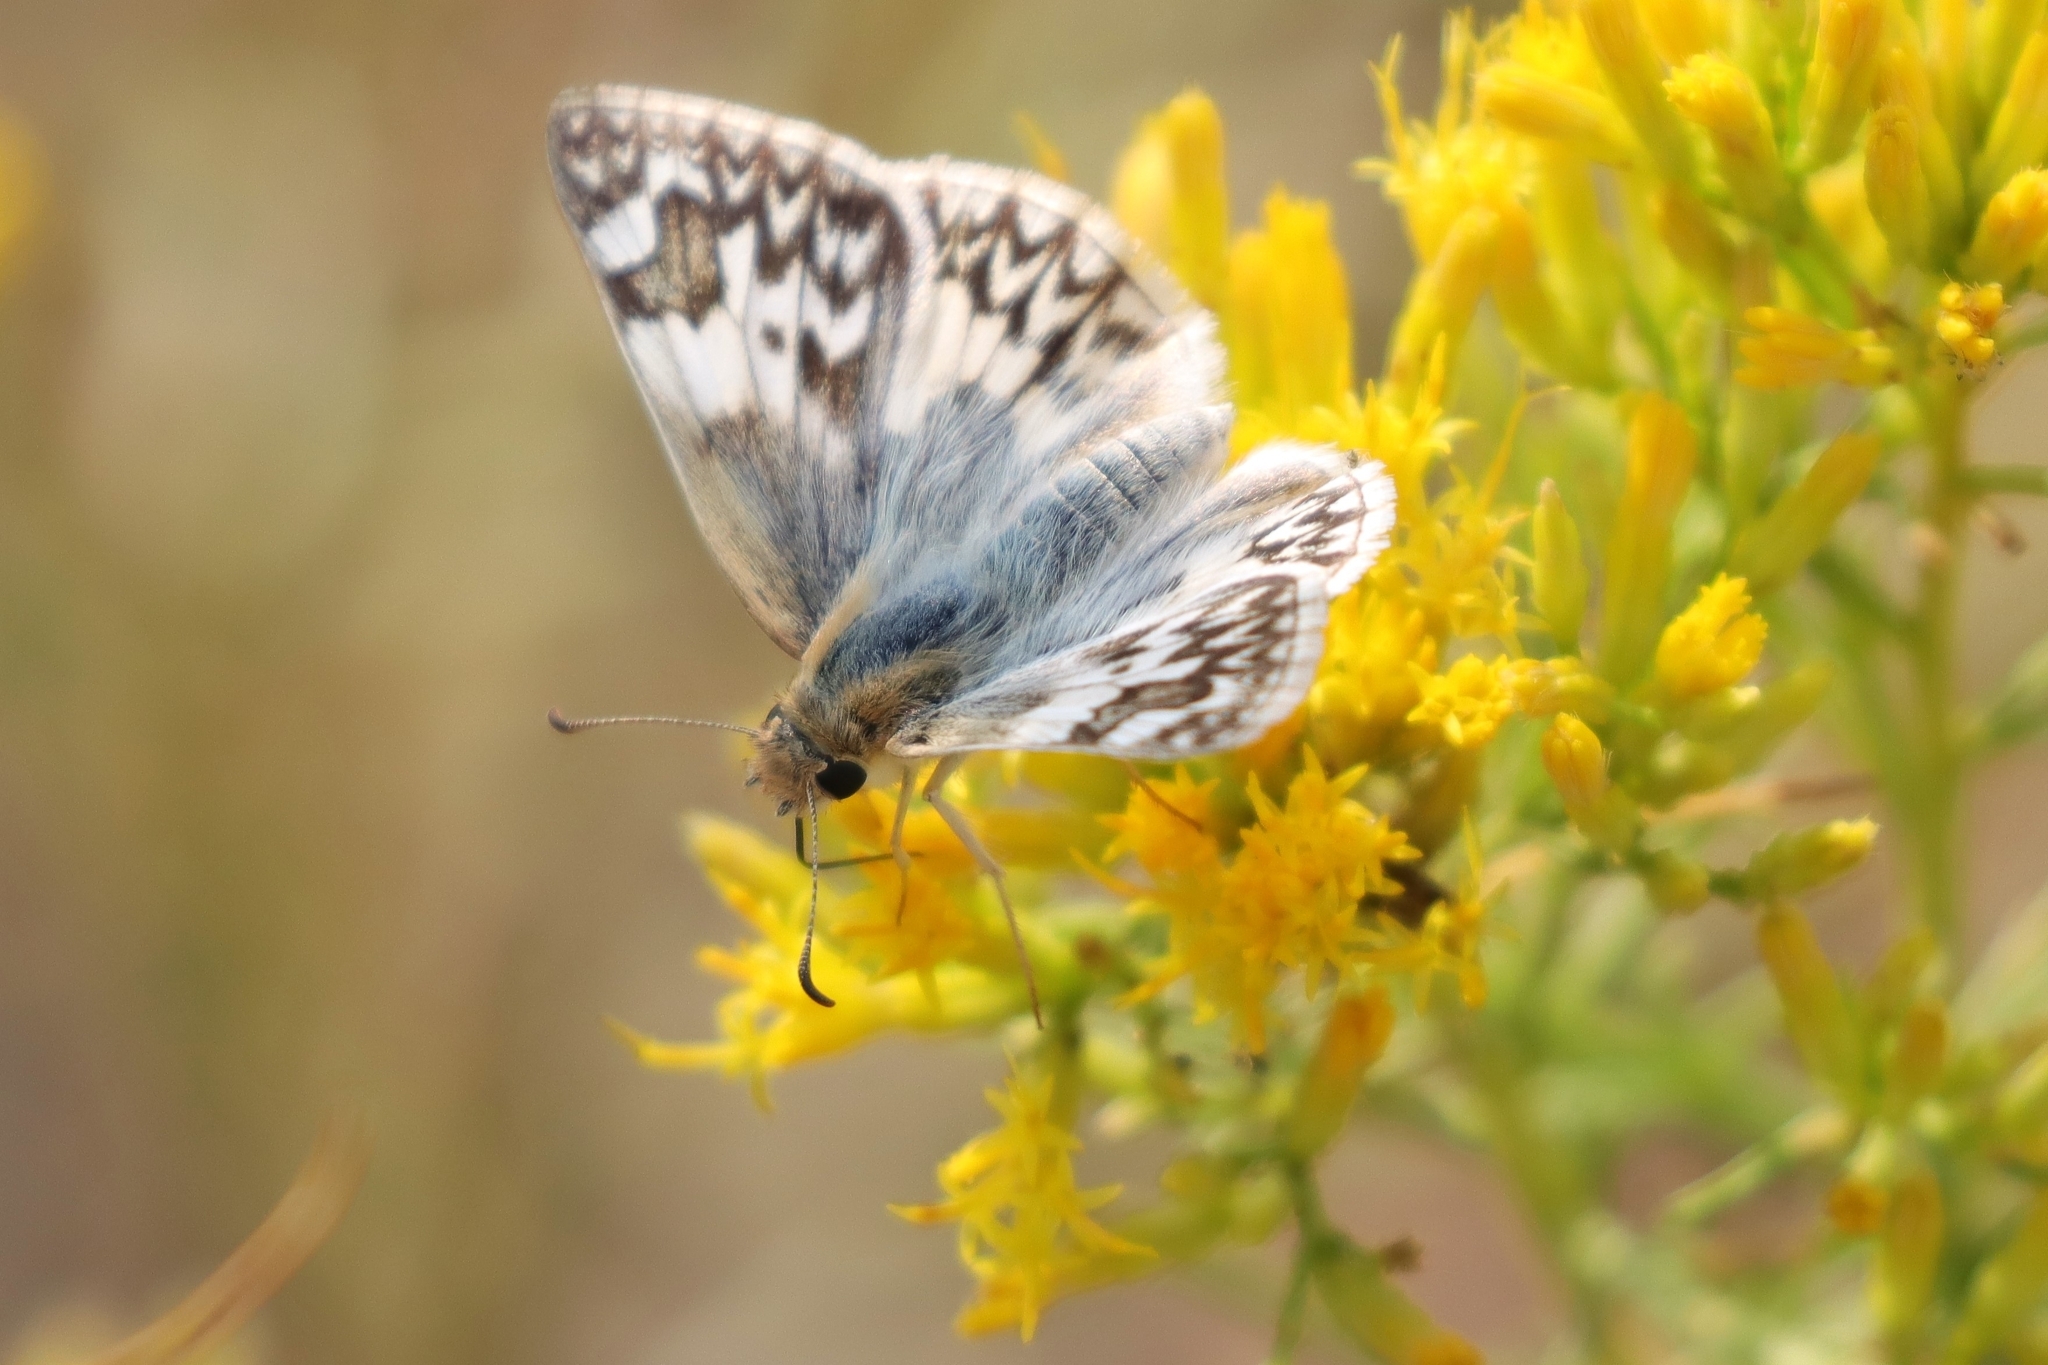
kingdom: Animalia
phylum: Arthropoda
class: Insecta
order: Lepidoptera
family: Hesperiidae
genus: Heliopetes
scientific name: Heliopetes ericetorum
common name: Northern white-skipper
